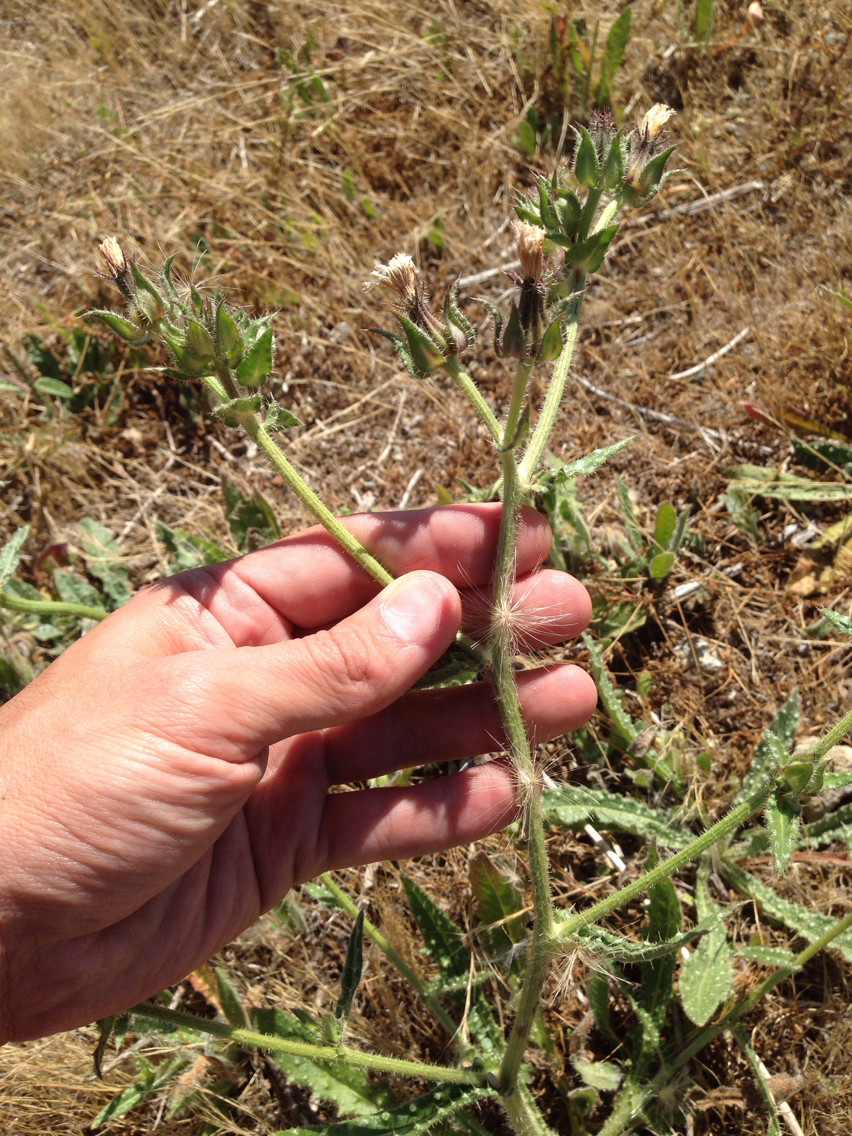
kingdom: Plantae
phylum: Tracheophyta
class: Magnoliopsida
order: Asterales
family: Asteraceae
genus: Helminthotheca
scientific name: Helminthotheca echioides
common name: Ox-tongue
